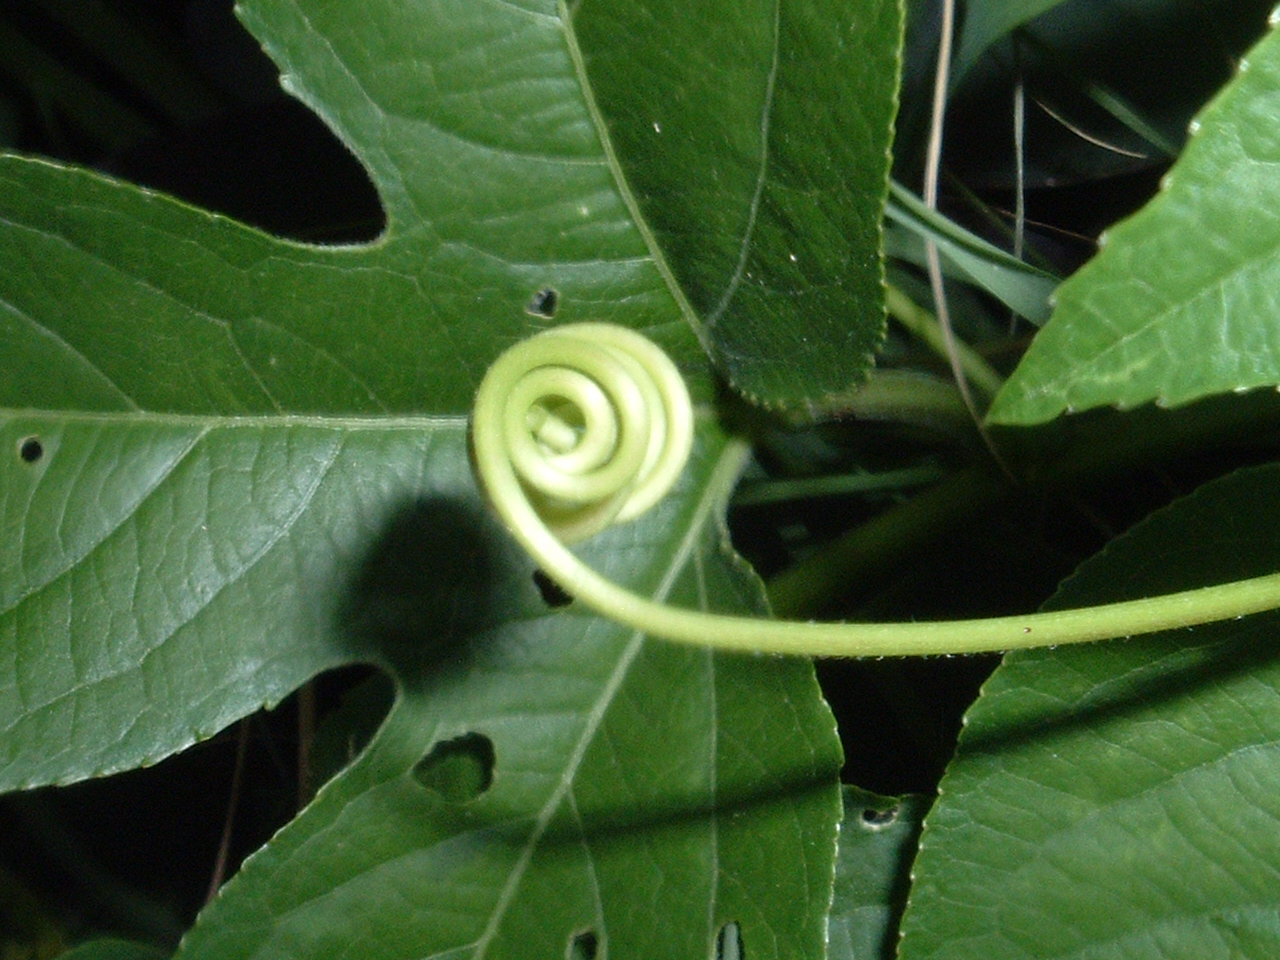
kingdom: Plantae
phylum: Tracheophyta
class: Magnoliopsida
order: Malpighiales
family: Passifloraceae
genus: Passiflora
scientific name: Passiflora incarnata
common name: Apricot-vine
